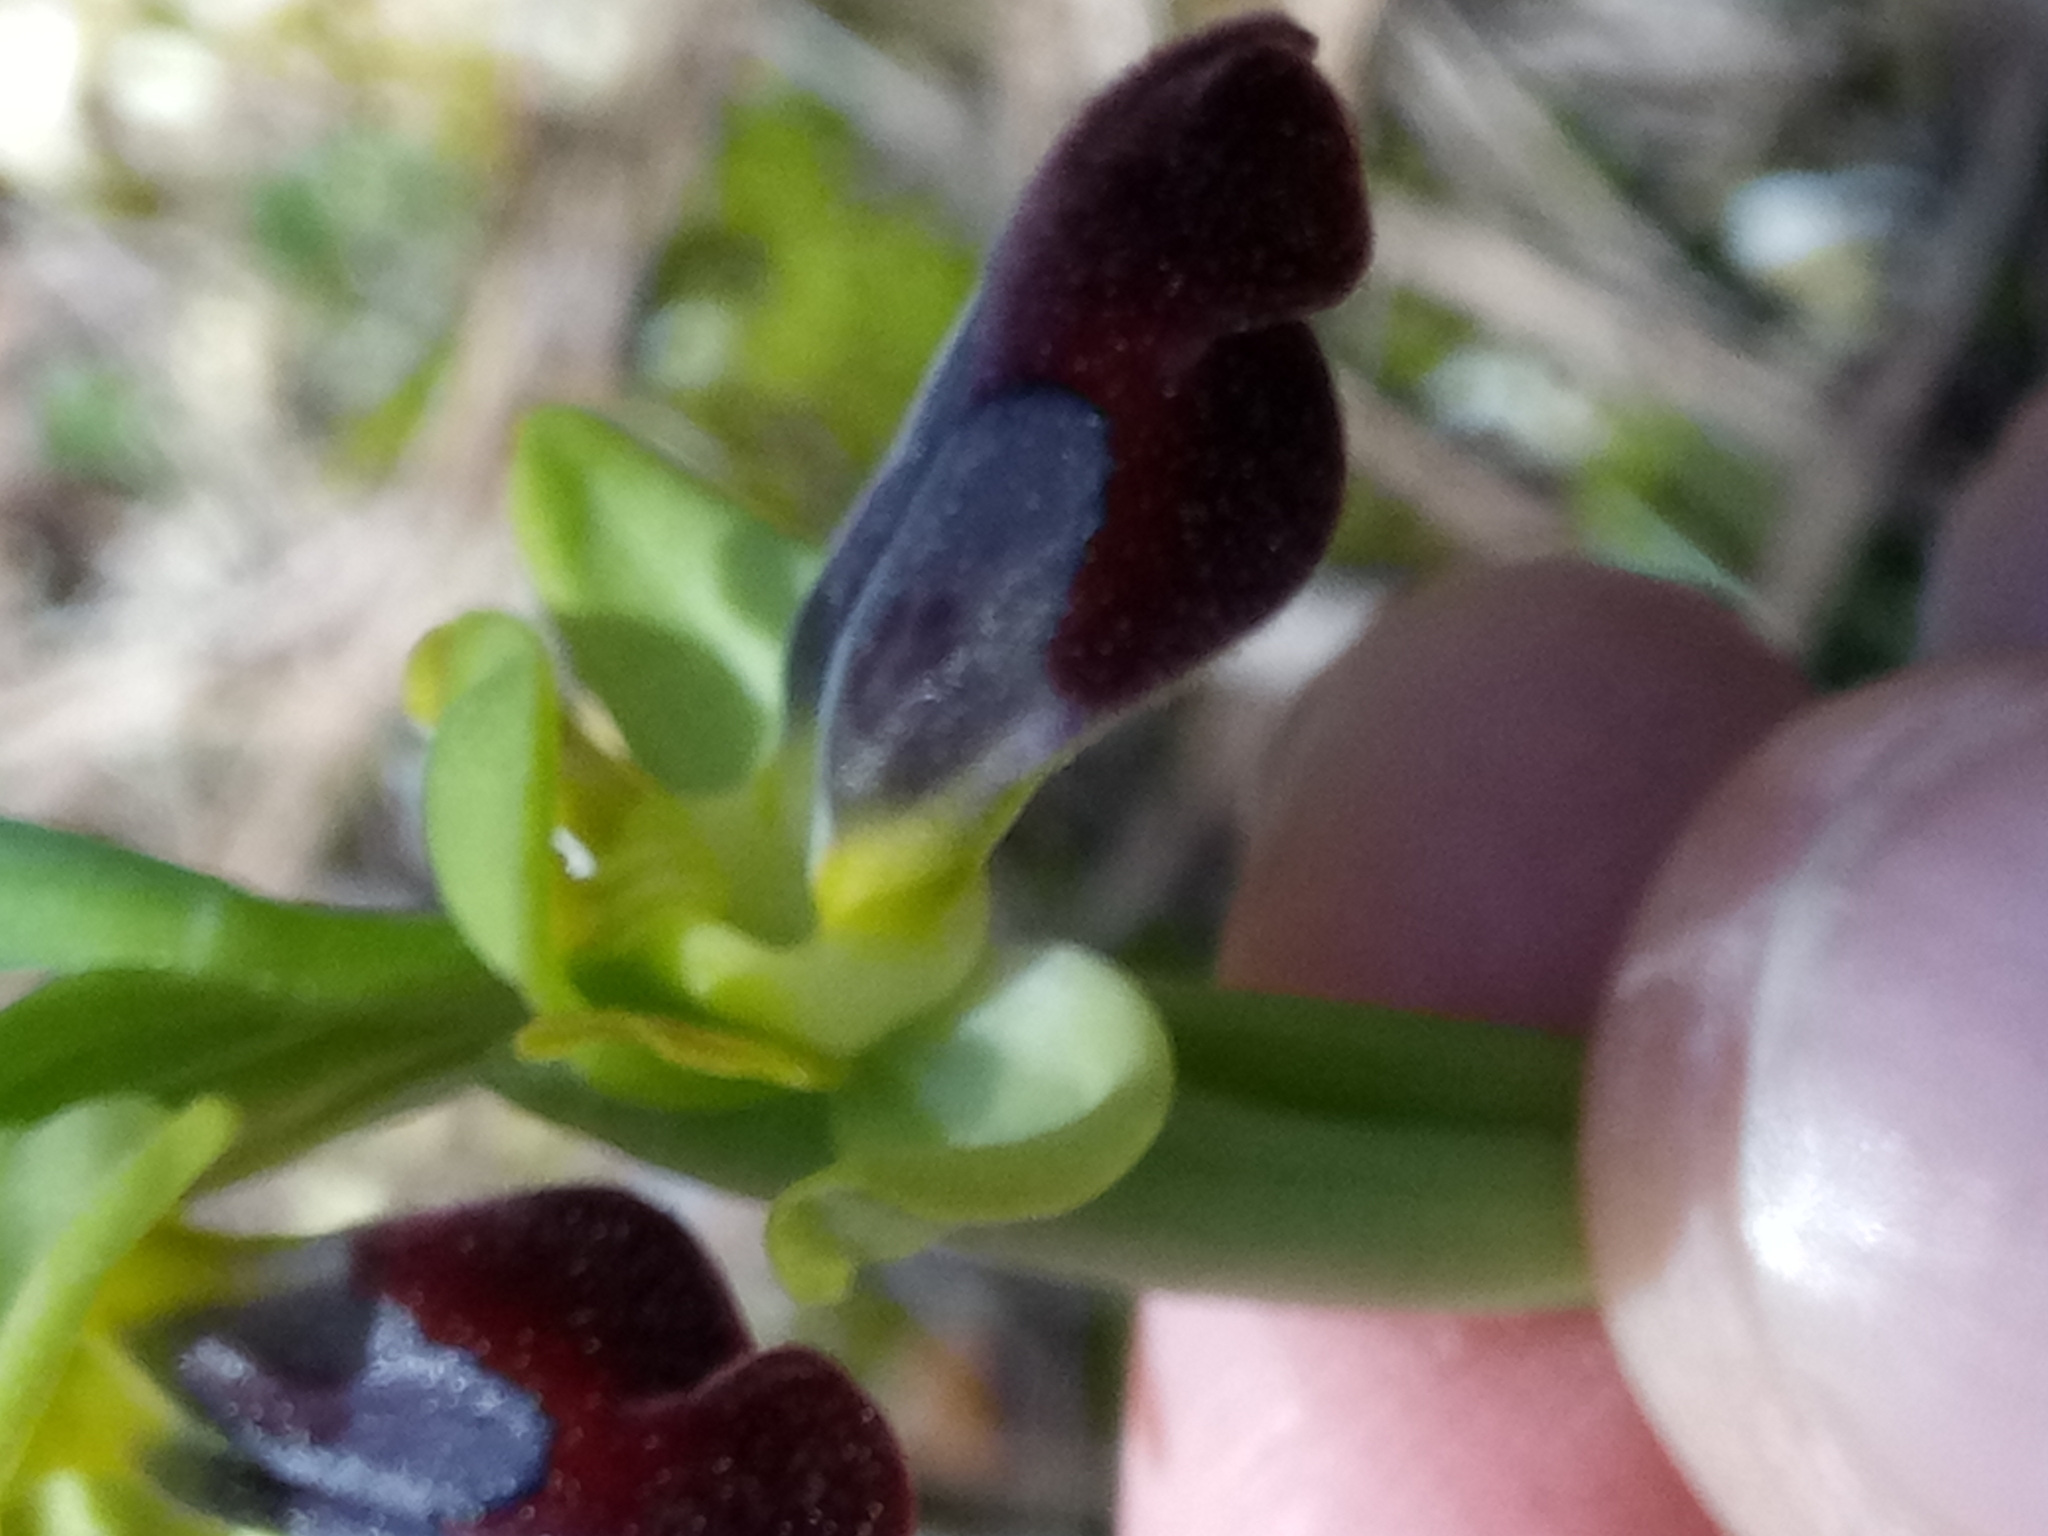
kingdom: Plantae
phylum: Tracheophyta
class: Liliopsida
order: Asparagales
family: Orchidaceae
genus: Ophrys
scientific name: Ophrys fusca
